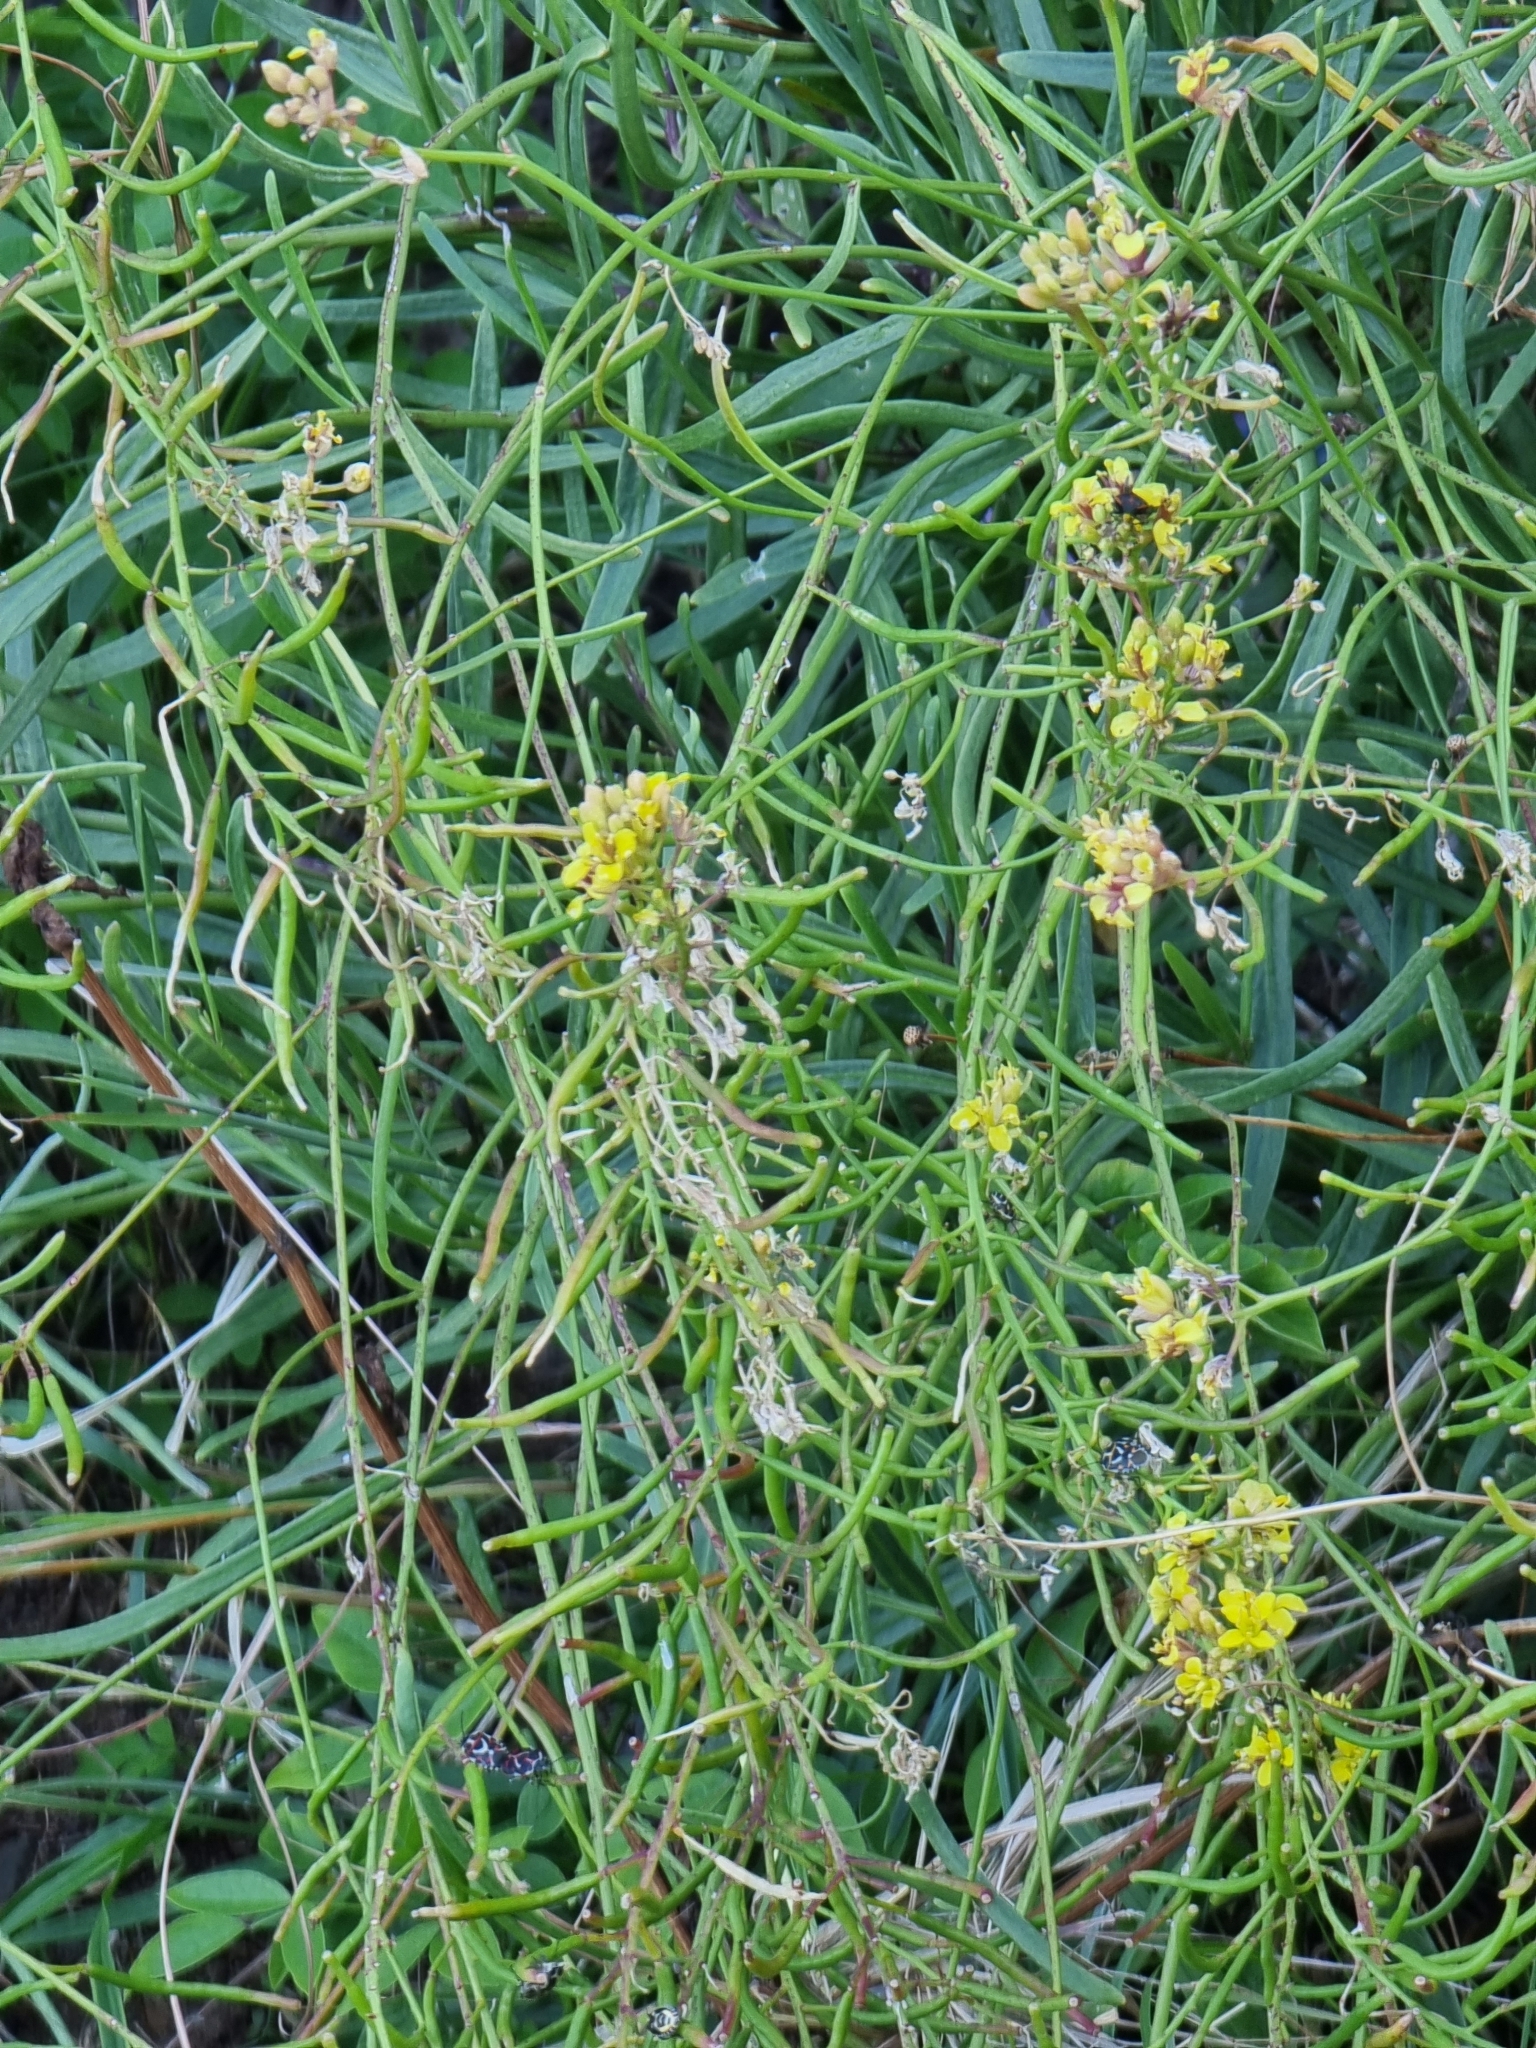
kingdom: Plantae
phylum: Tracheophyta
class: Magnoliopsida
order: Brassicales
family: Brassicaceae
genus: Sinapidendron
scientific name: Sinapidendron angustifolium
